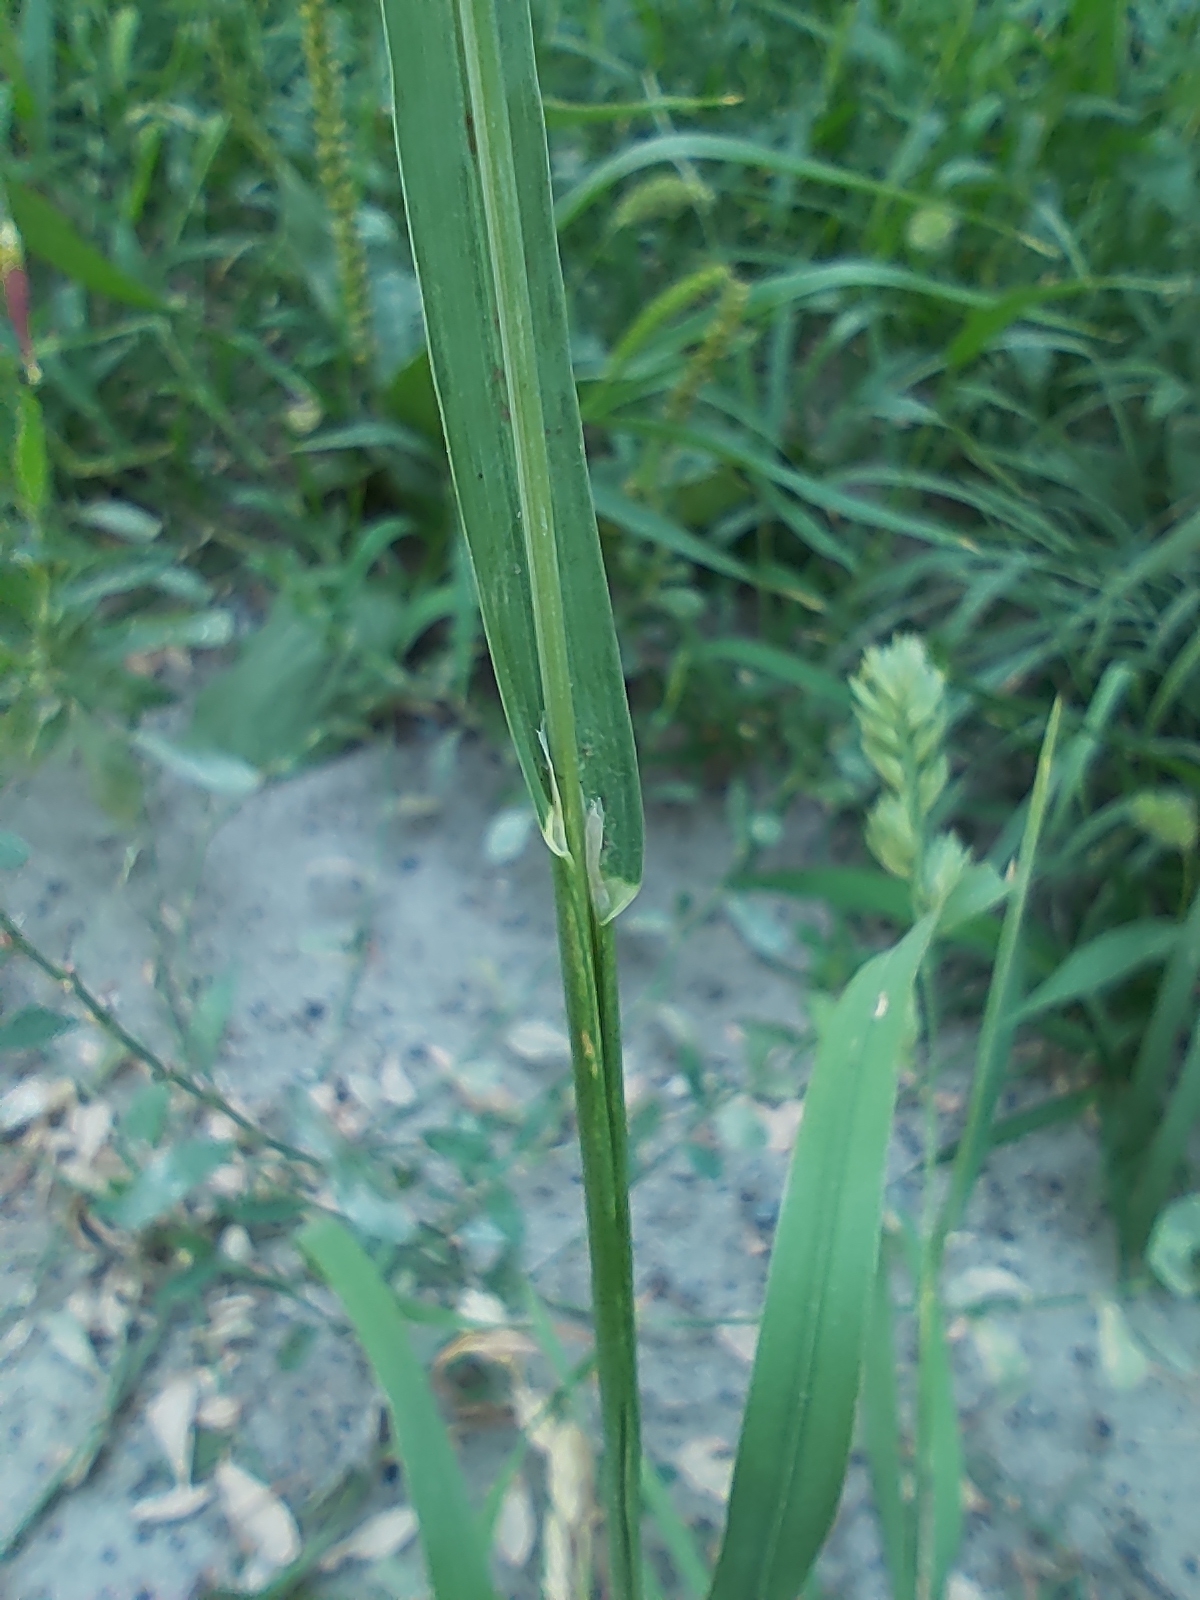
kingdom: Plantae
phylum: Tracheophyta
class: Liliopsida
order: Poales
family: Poaceae
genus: Dactylis
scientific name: Dactylis glomerata
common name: Orchardgrass
